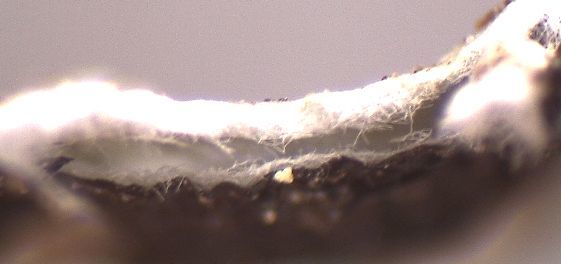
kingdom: Fungi
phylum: Ascomycota
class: Lecanoromycetes
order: Lecanorales
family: Parmeliaceae
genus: Hypogymnia
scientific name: Hypogymnia turgidula
